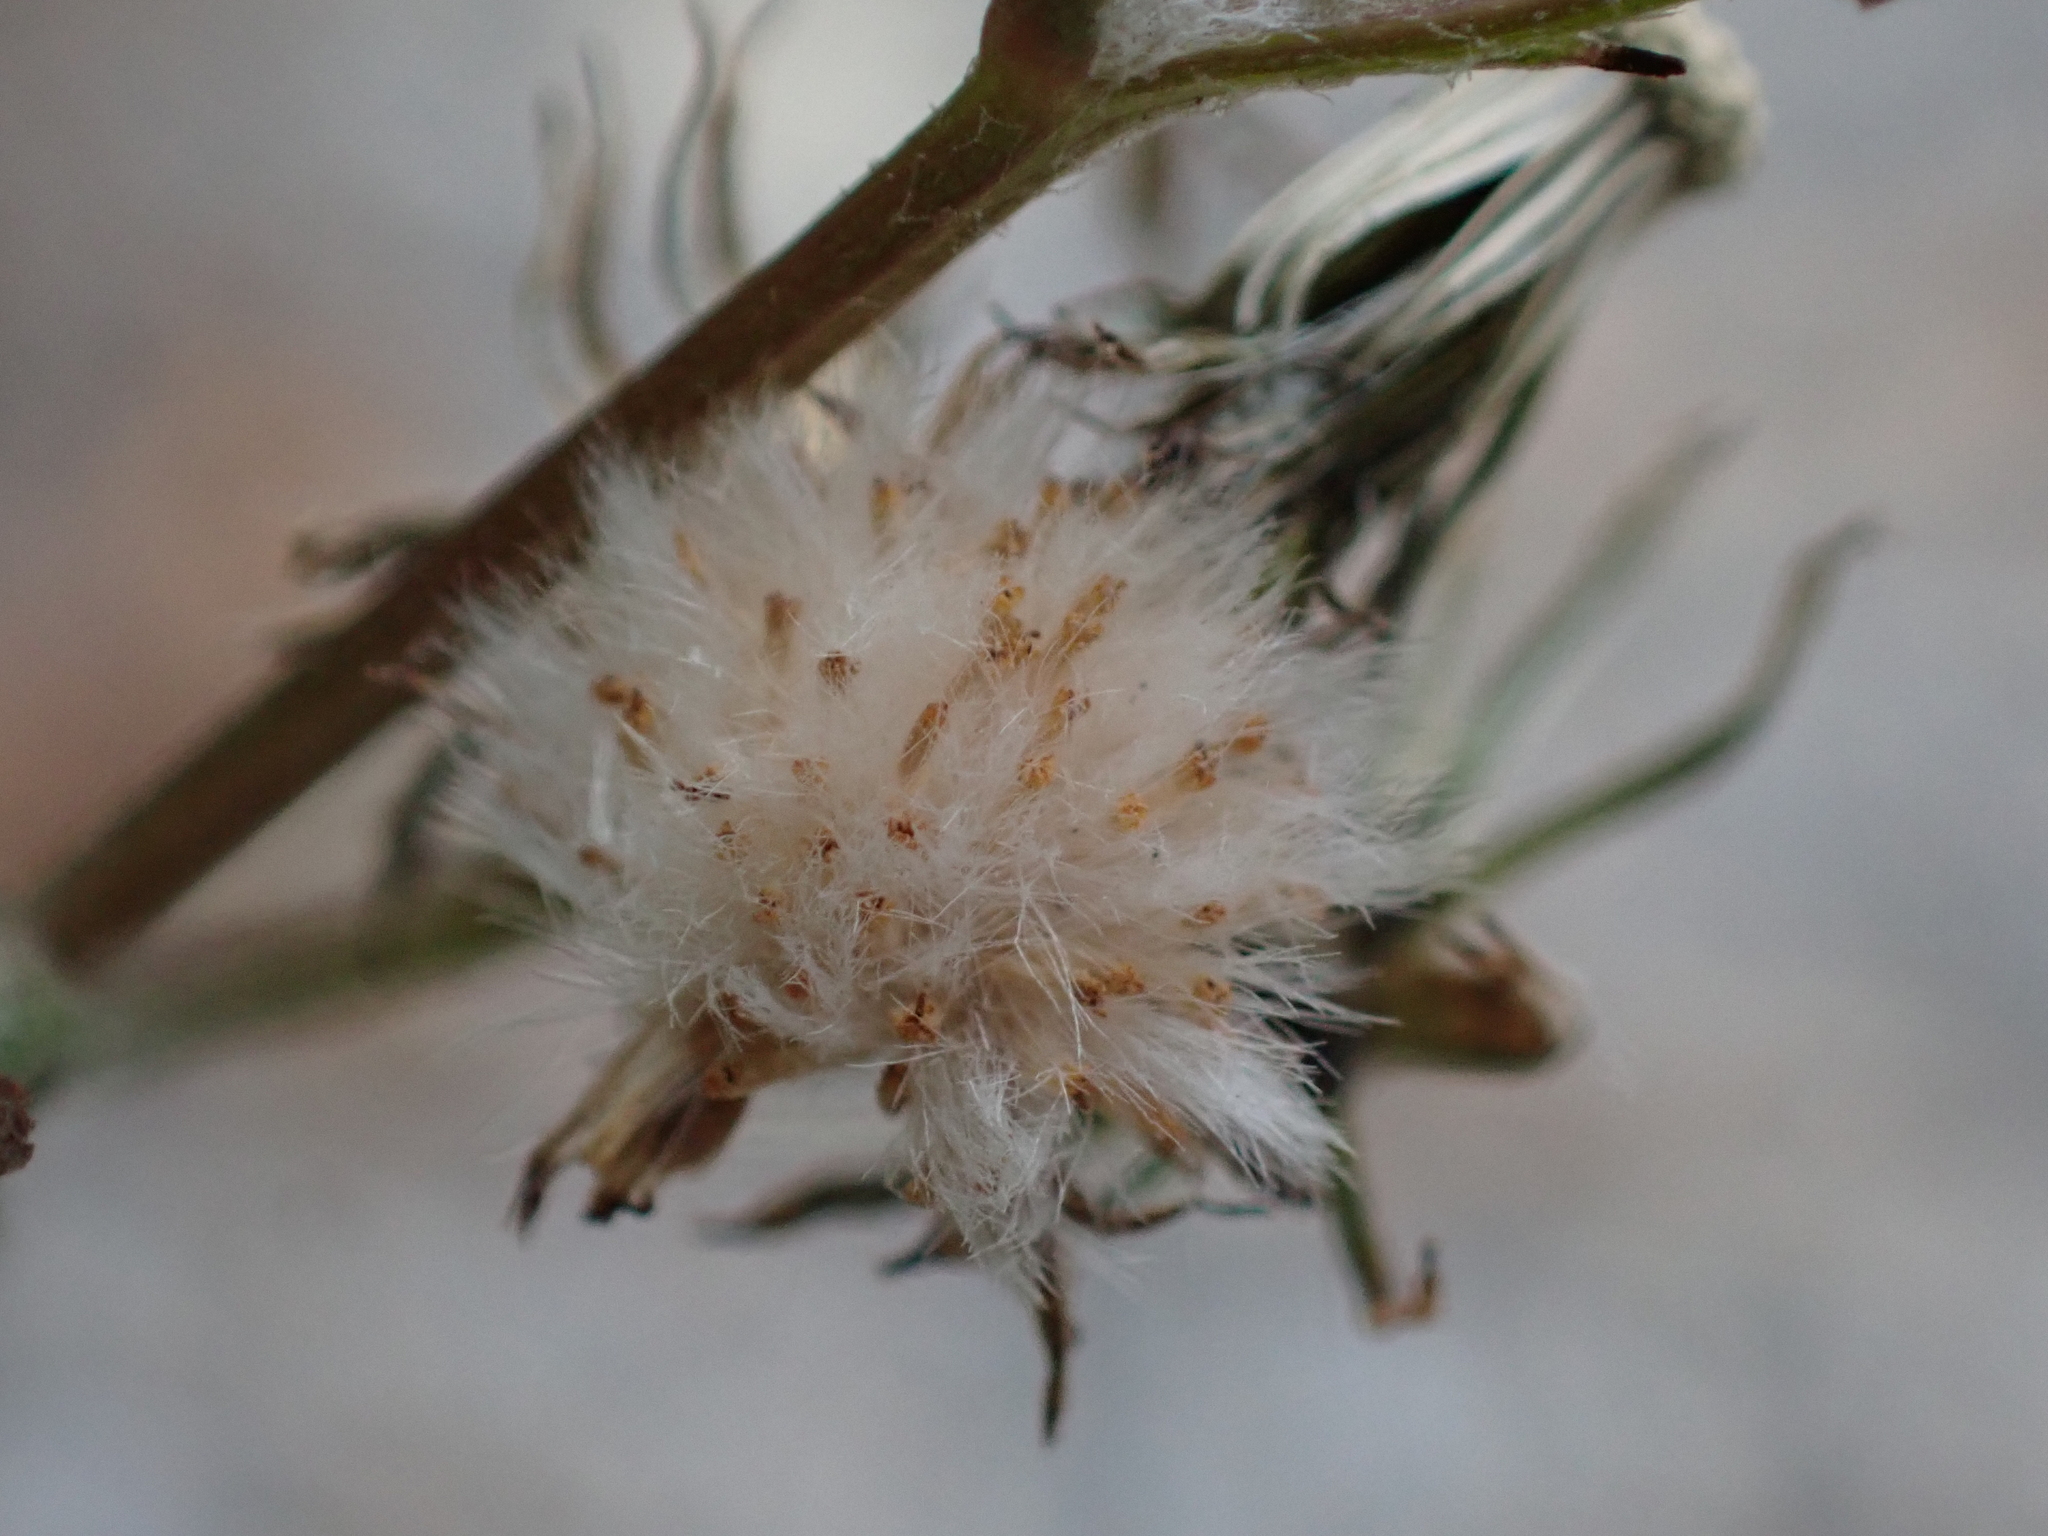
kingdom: Plantae
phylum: Tracheophyta
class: Magnoliopsida
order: Asterales
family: Asteraceae
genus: Senecio
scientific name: Senecio vulgaris
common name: Old-man-in-the-spring
